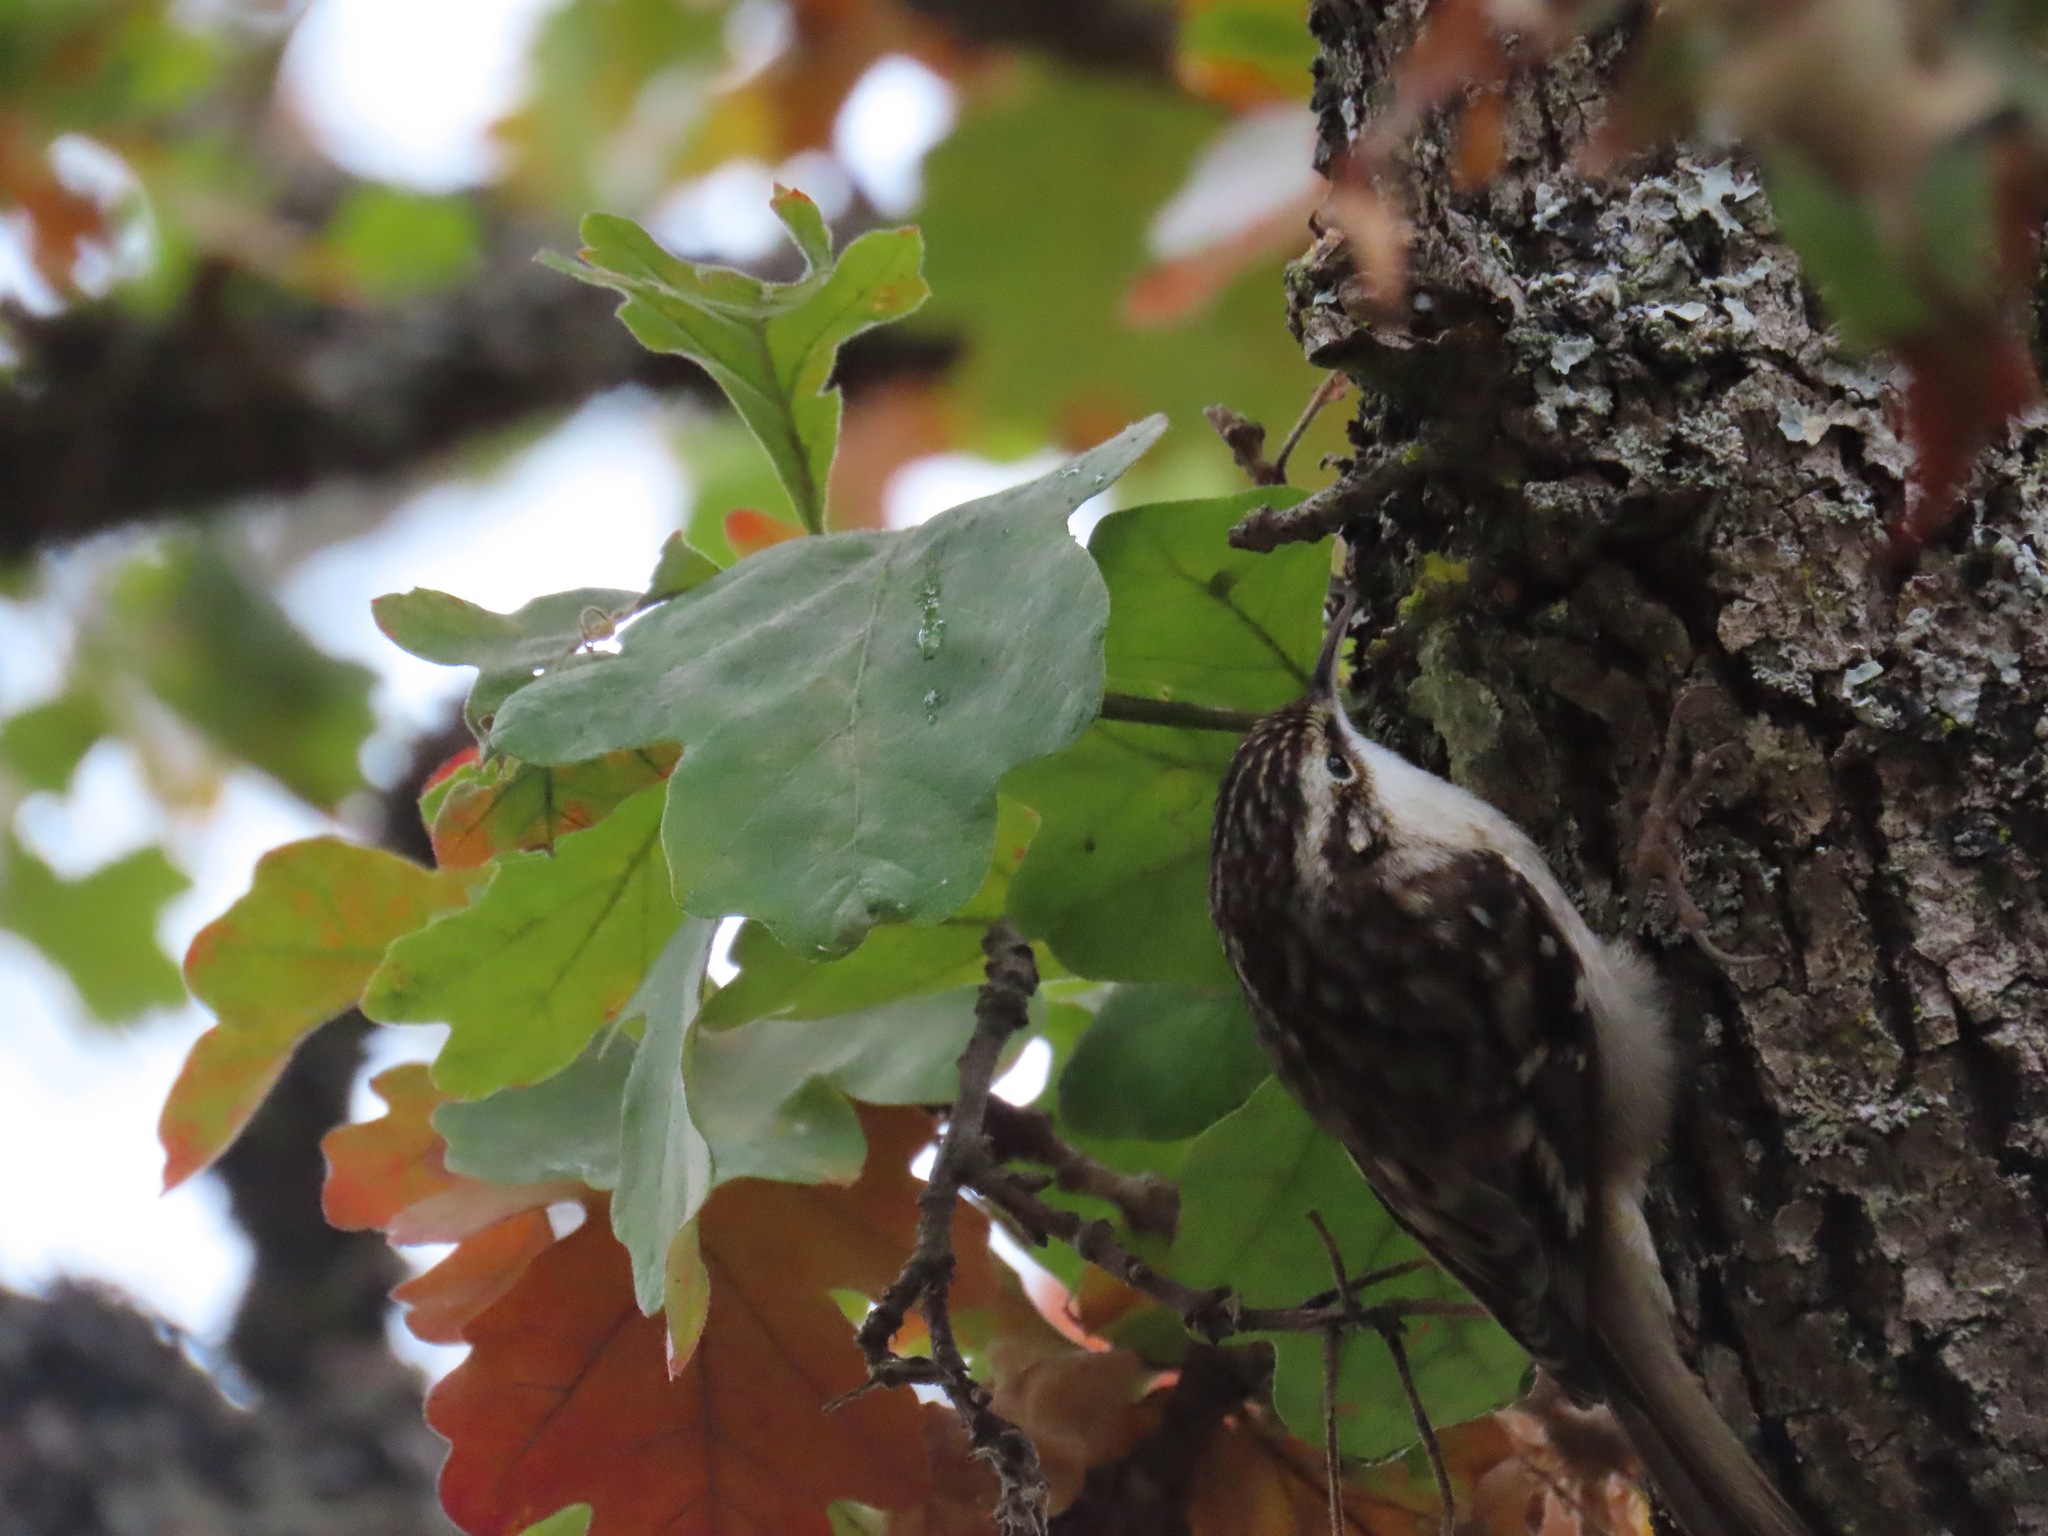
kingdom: Animalia
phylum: Chordata
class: Aves
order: Passeriformes
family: Certhiidae
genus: Certhia
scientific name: Certhia americana
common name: Brown creeper
